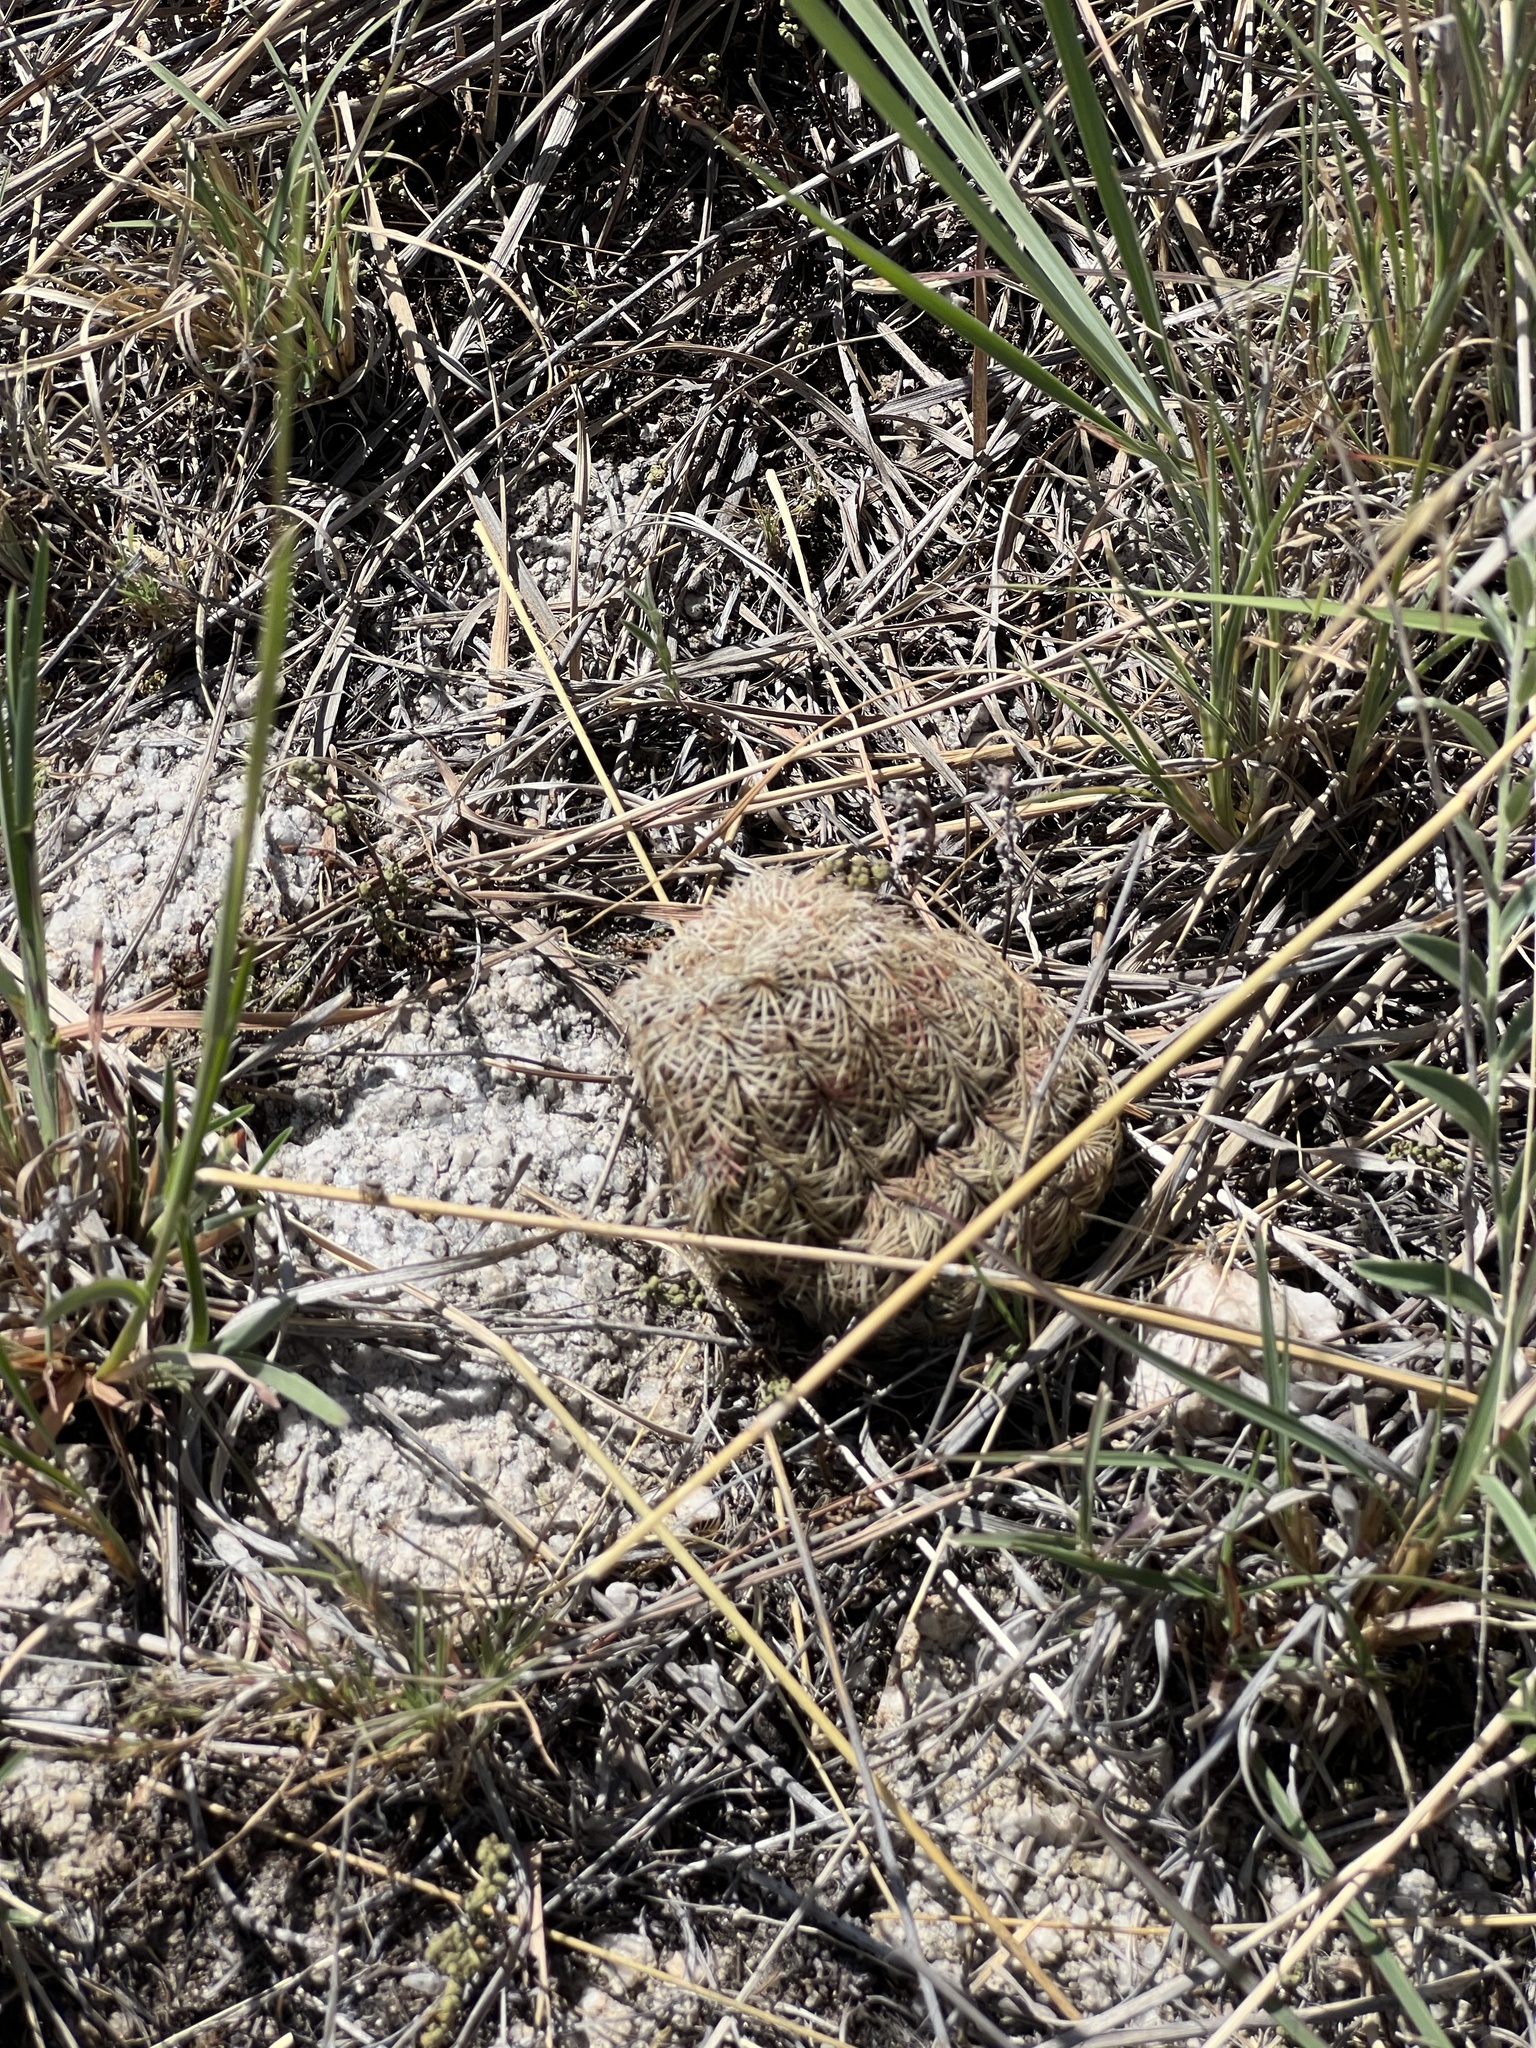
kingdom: Plantae
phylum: Tracheophyta
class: Magnoliopsida
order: Caryophyllales
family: Cactaceae
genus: Echinocereus
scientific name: Echinocereus rigidissimus
